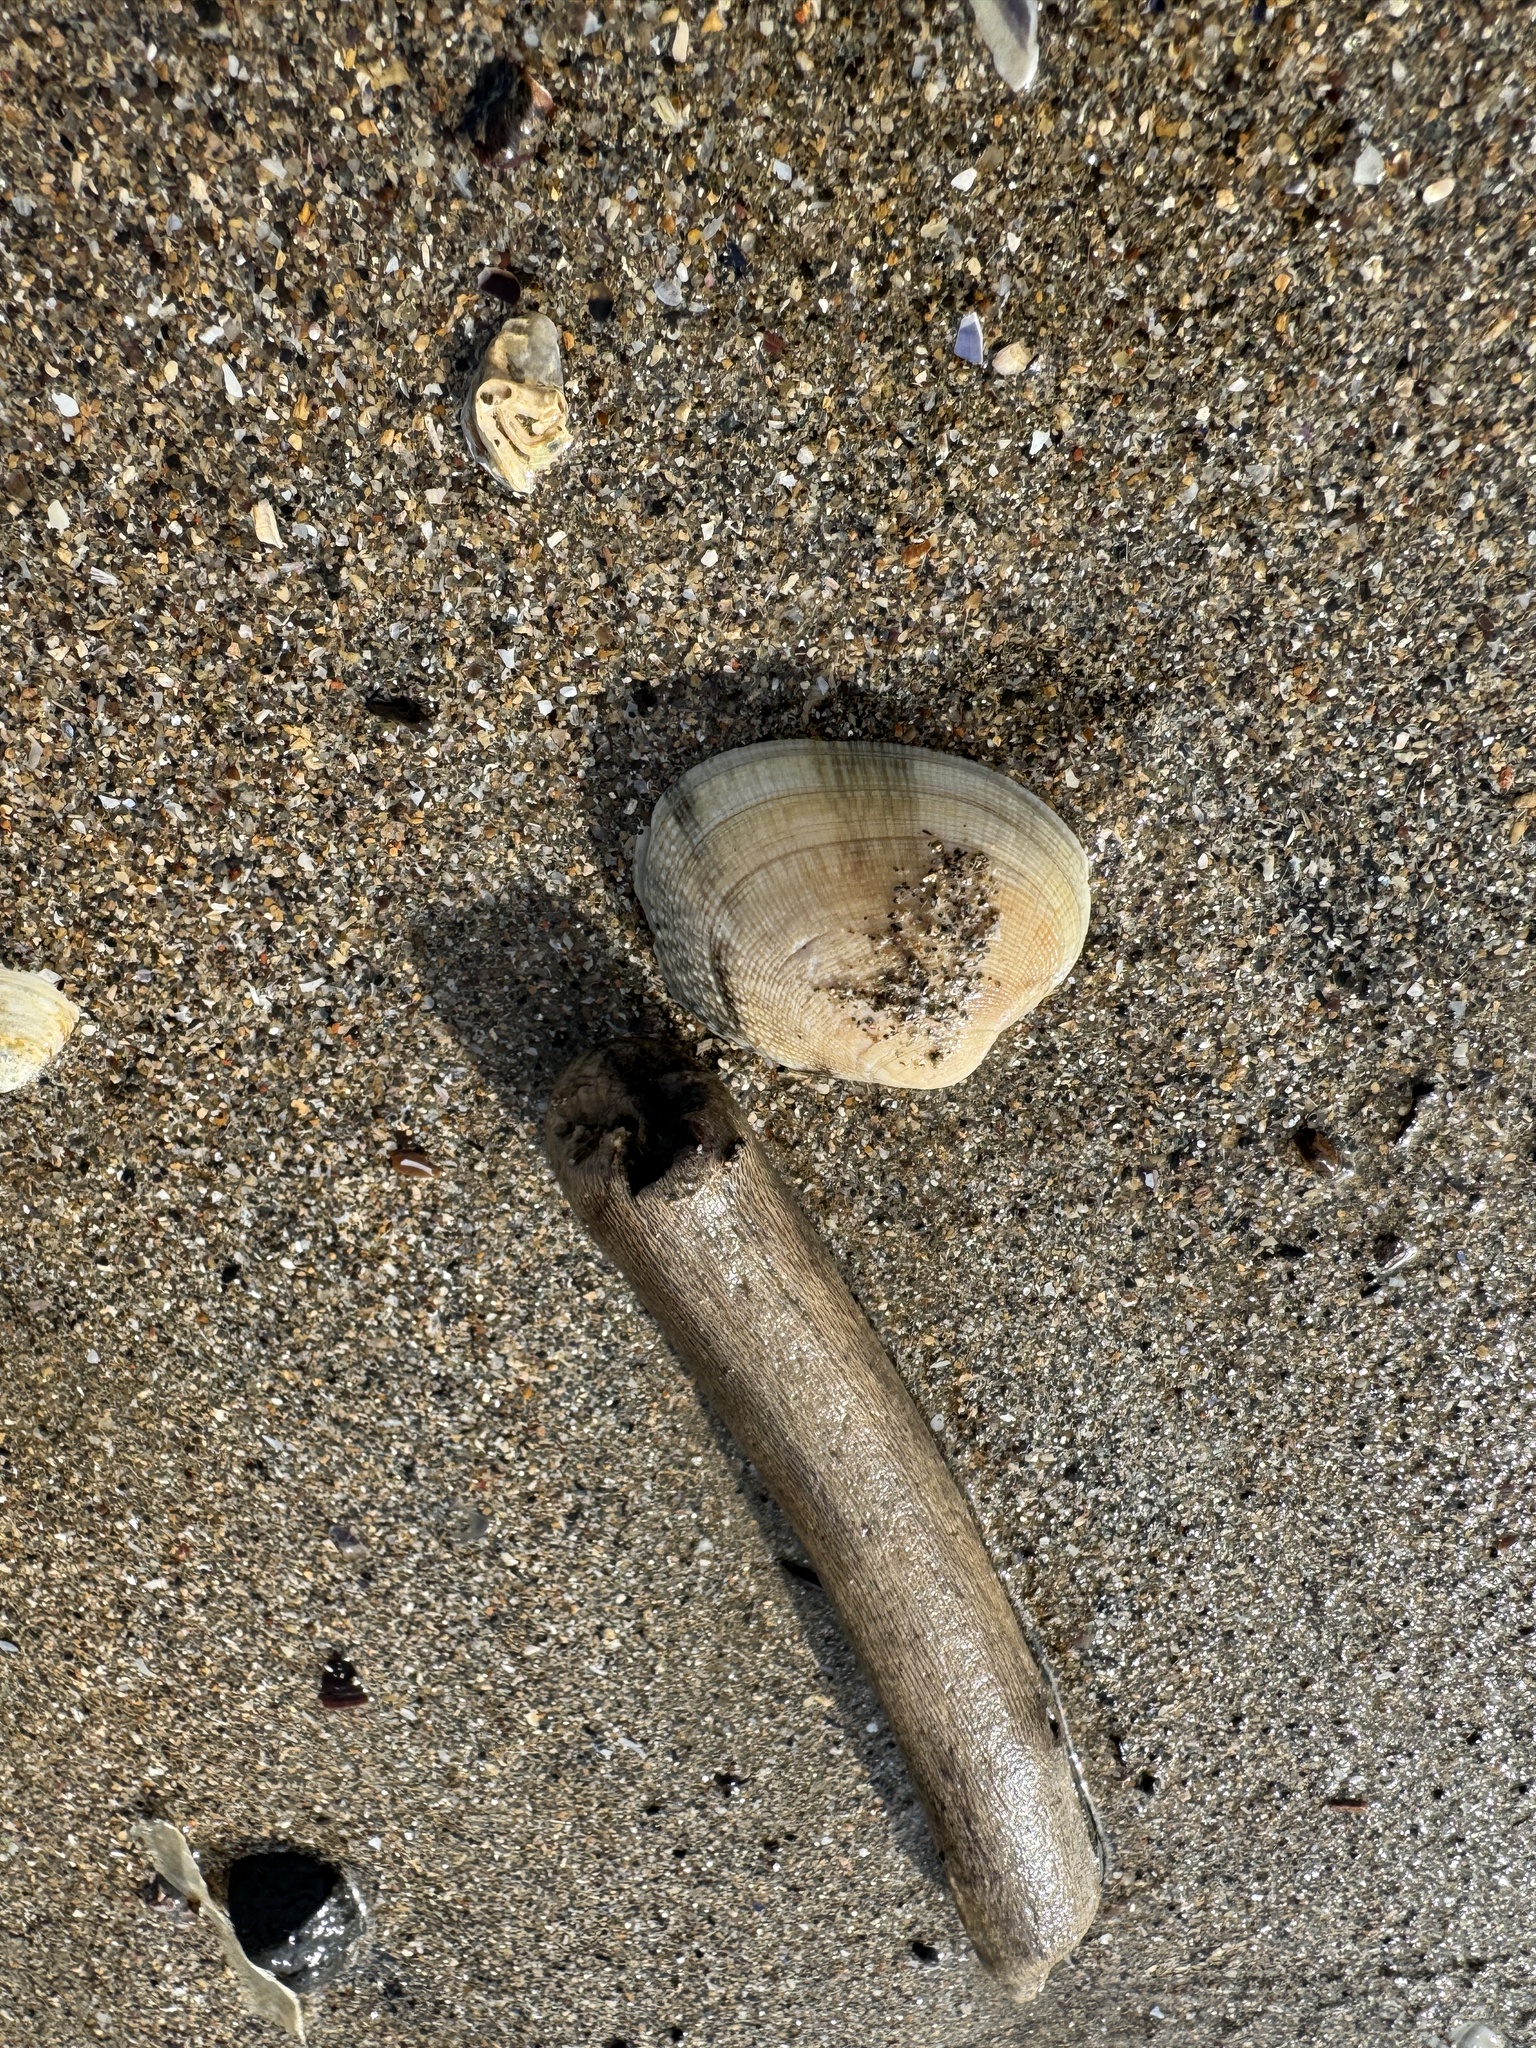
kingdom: Animalia
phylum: Mollusca
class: Bivalvia
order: Venerida
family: Veneridae
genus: Ruditapes
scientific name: Ruditapes decussatus
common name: Chequered carpet shell
